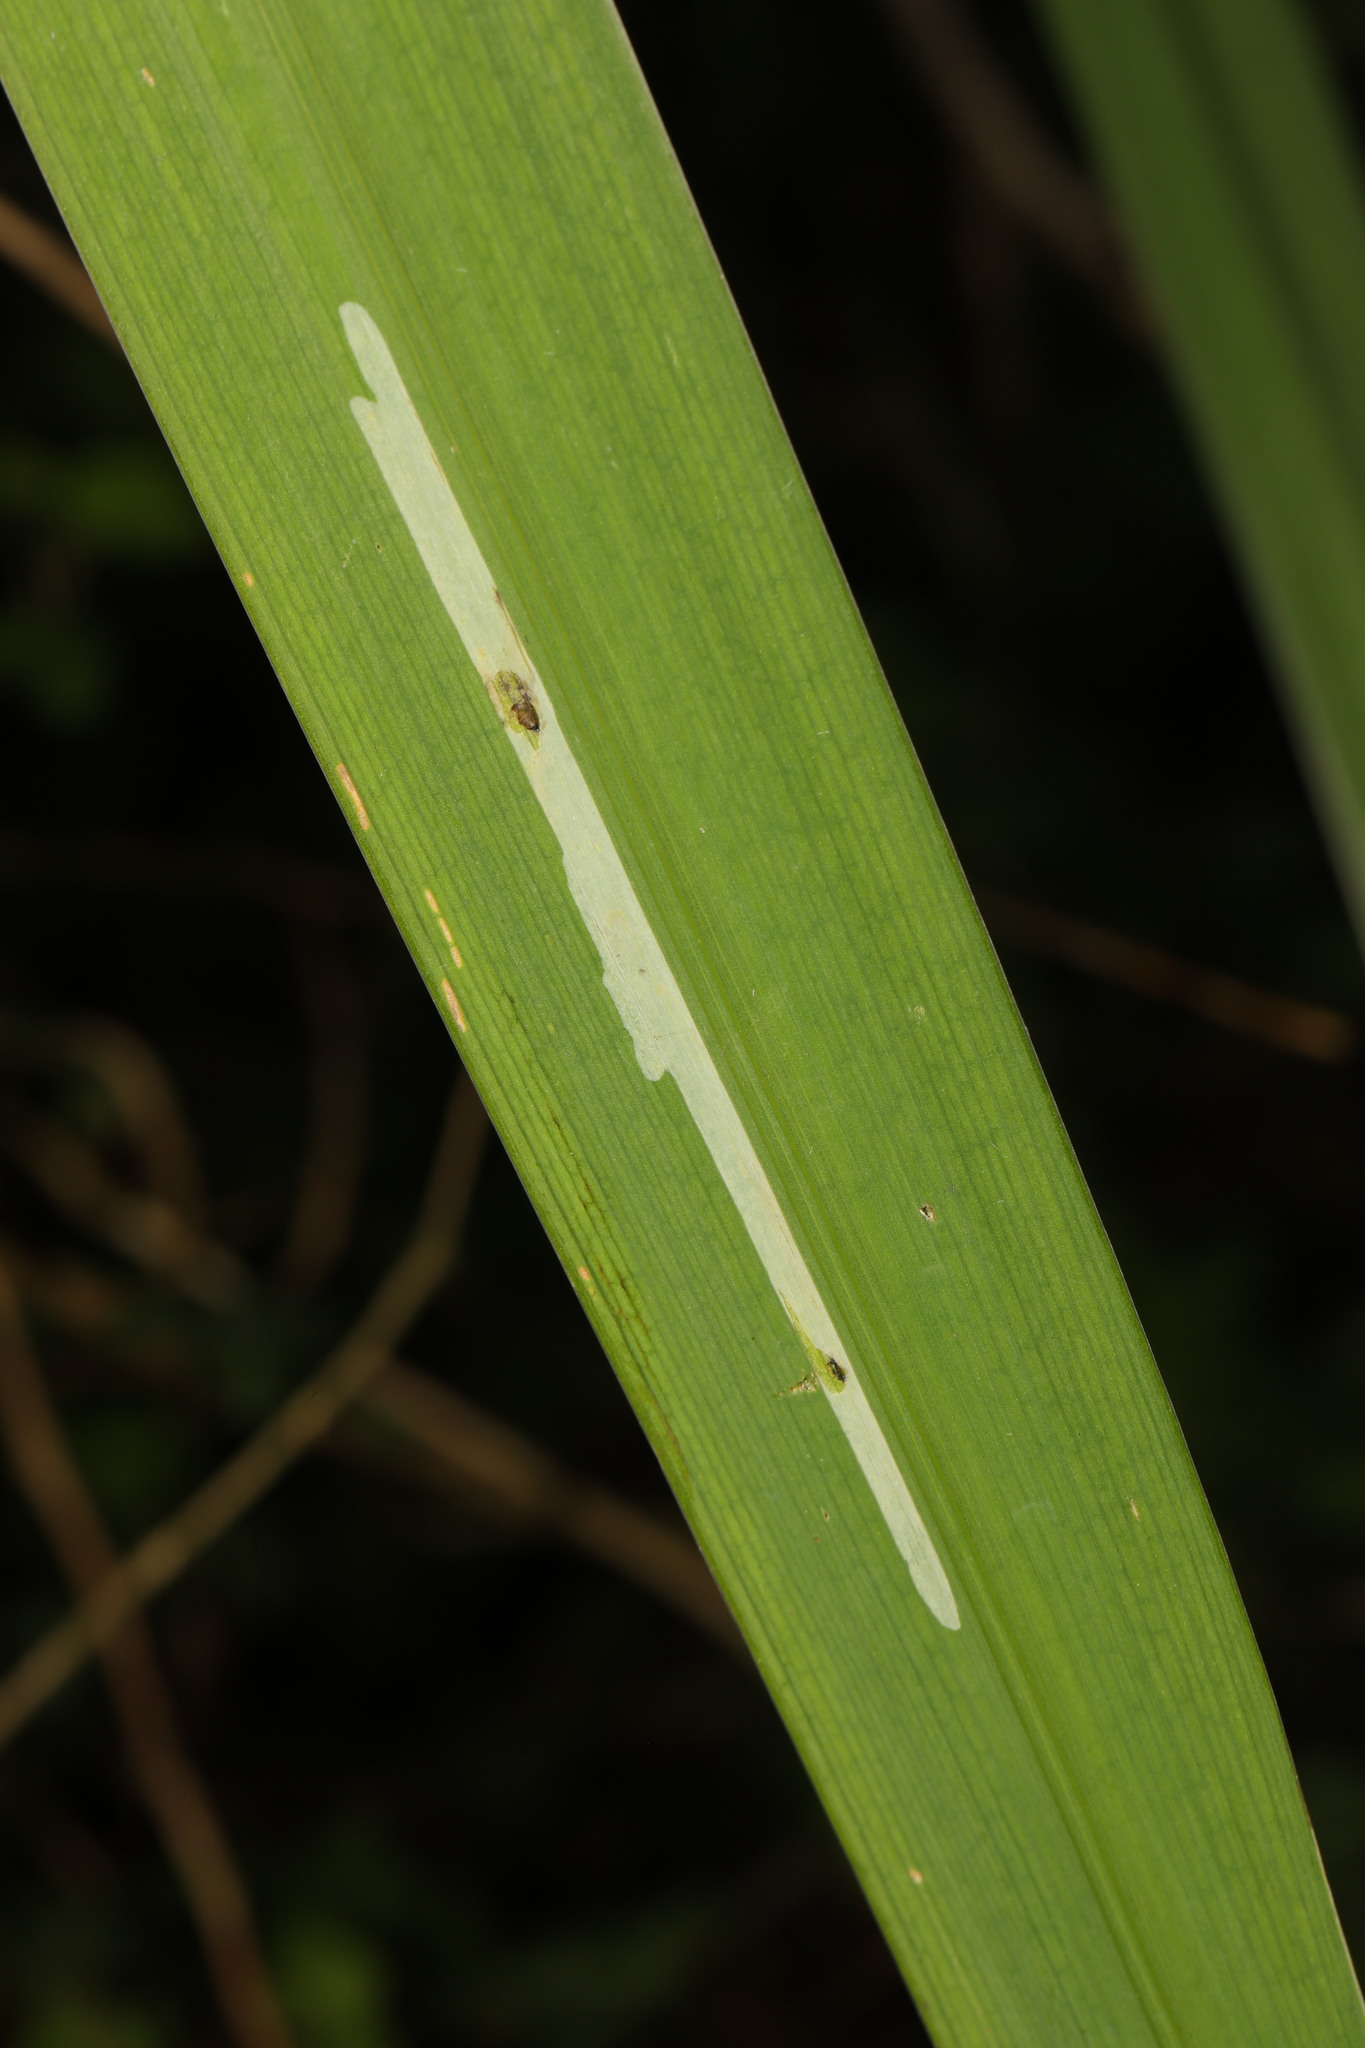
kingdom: Animalia
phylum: Arthropoda
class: Insecta
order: Diptera
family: Agromyzidae
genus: Cerodontha
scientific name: Cerodontha ircos
